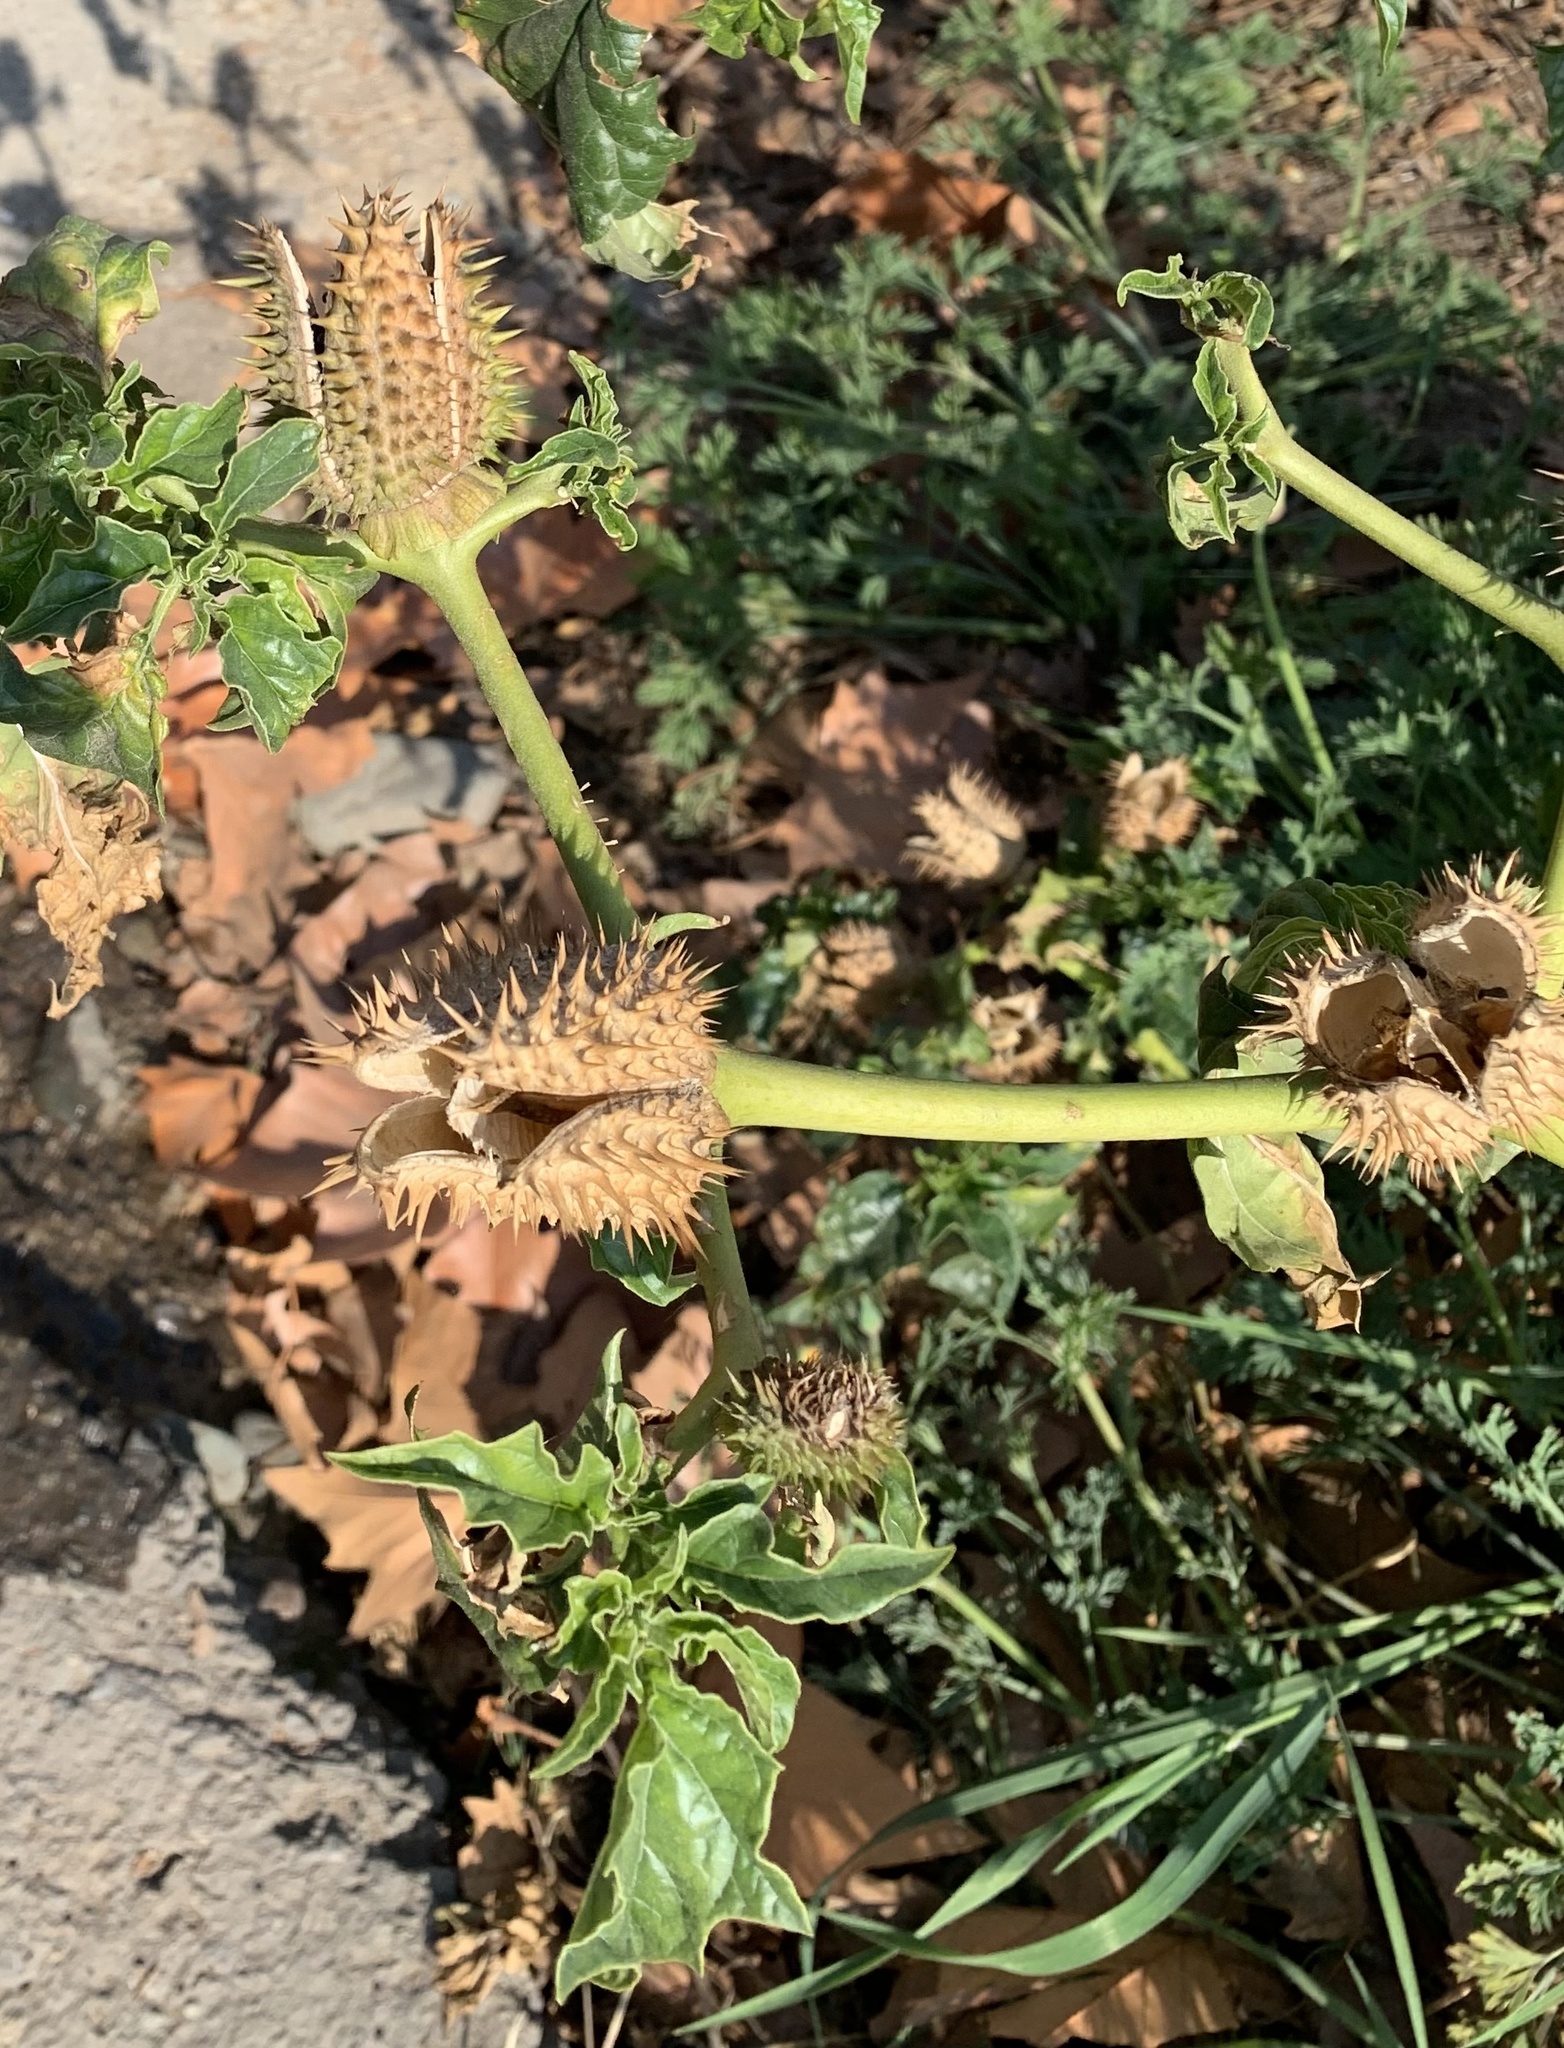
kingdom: Plantae
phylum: Tracheophyta
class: Magnoliopsida
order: Solanales
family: Solanaceae
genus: Datura
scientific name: Datura stramonium
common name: Thorn-apple
